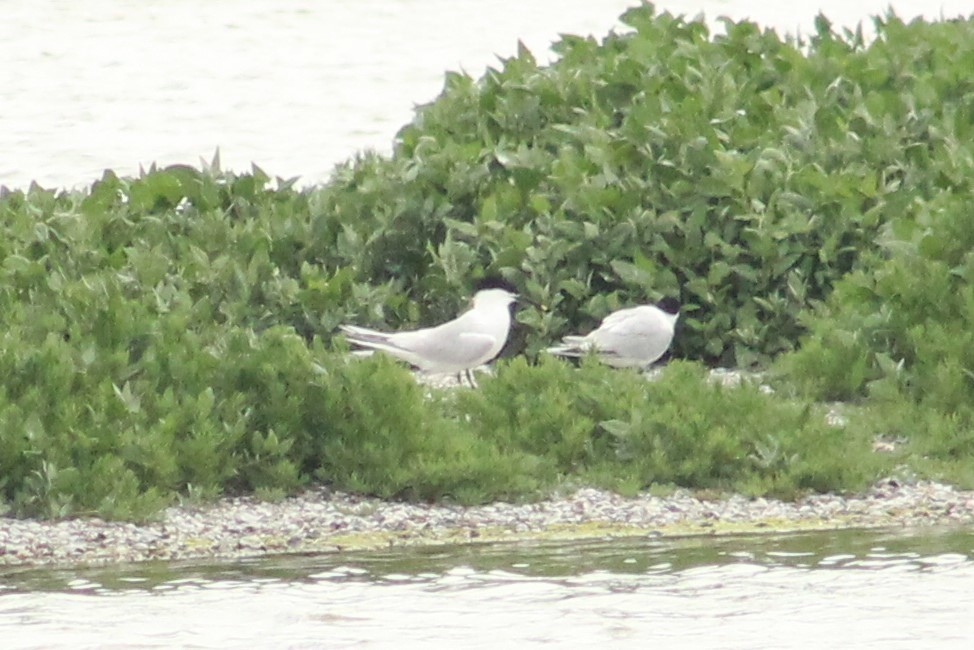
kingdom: Animalia
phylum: Chordata
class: Aves
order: Charadriiformes
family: Laridae
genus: Thalasseus
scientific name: Thalasseus sandvicensis
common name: Sandwich tern
